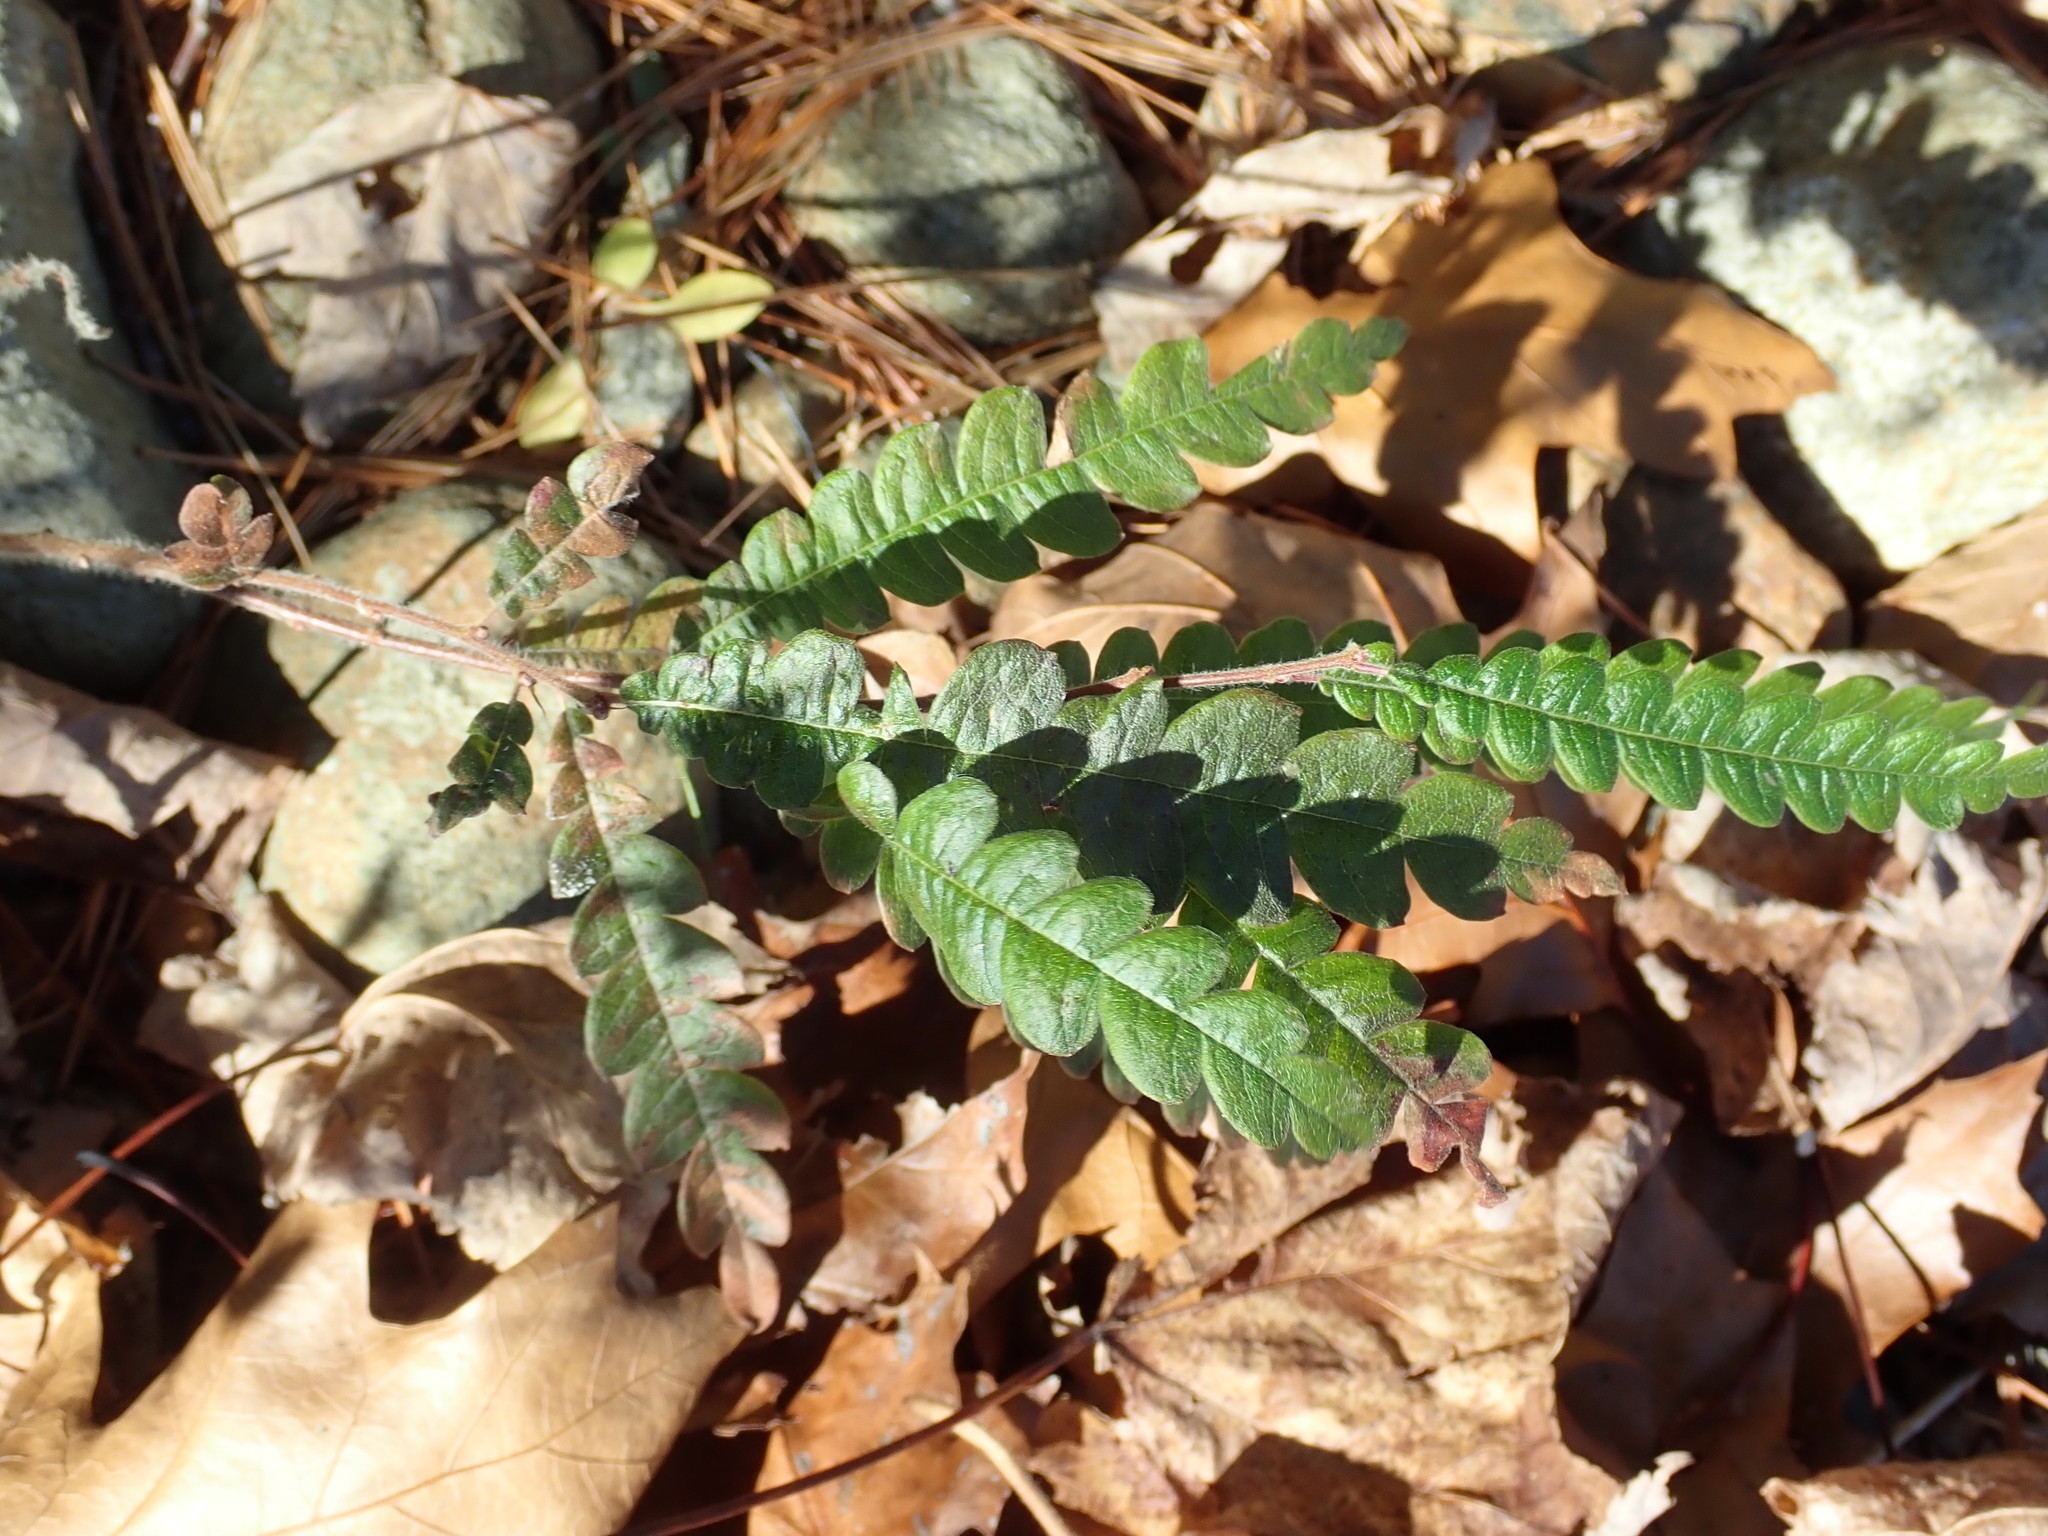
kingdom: Plantae
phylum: Tracheophyta
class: Magnoliopsida
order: Fagales
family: Myricaceae
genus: Comptonia
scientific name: Comptonia peregrina
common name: Sweet-fern
